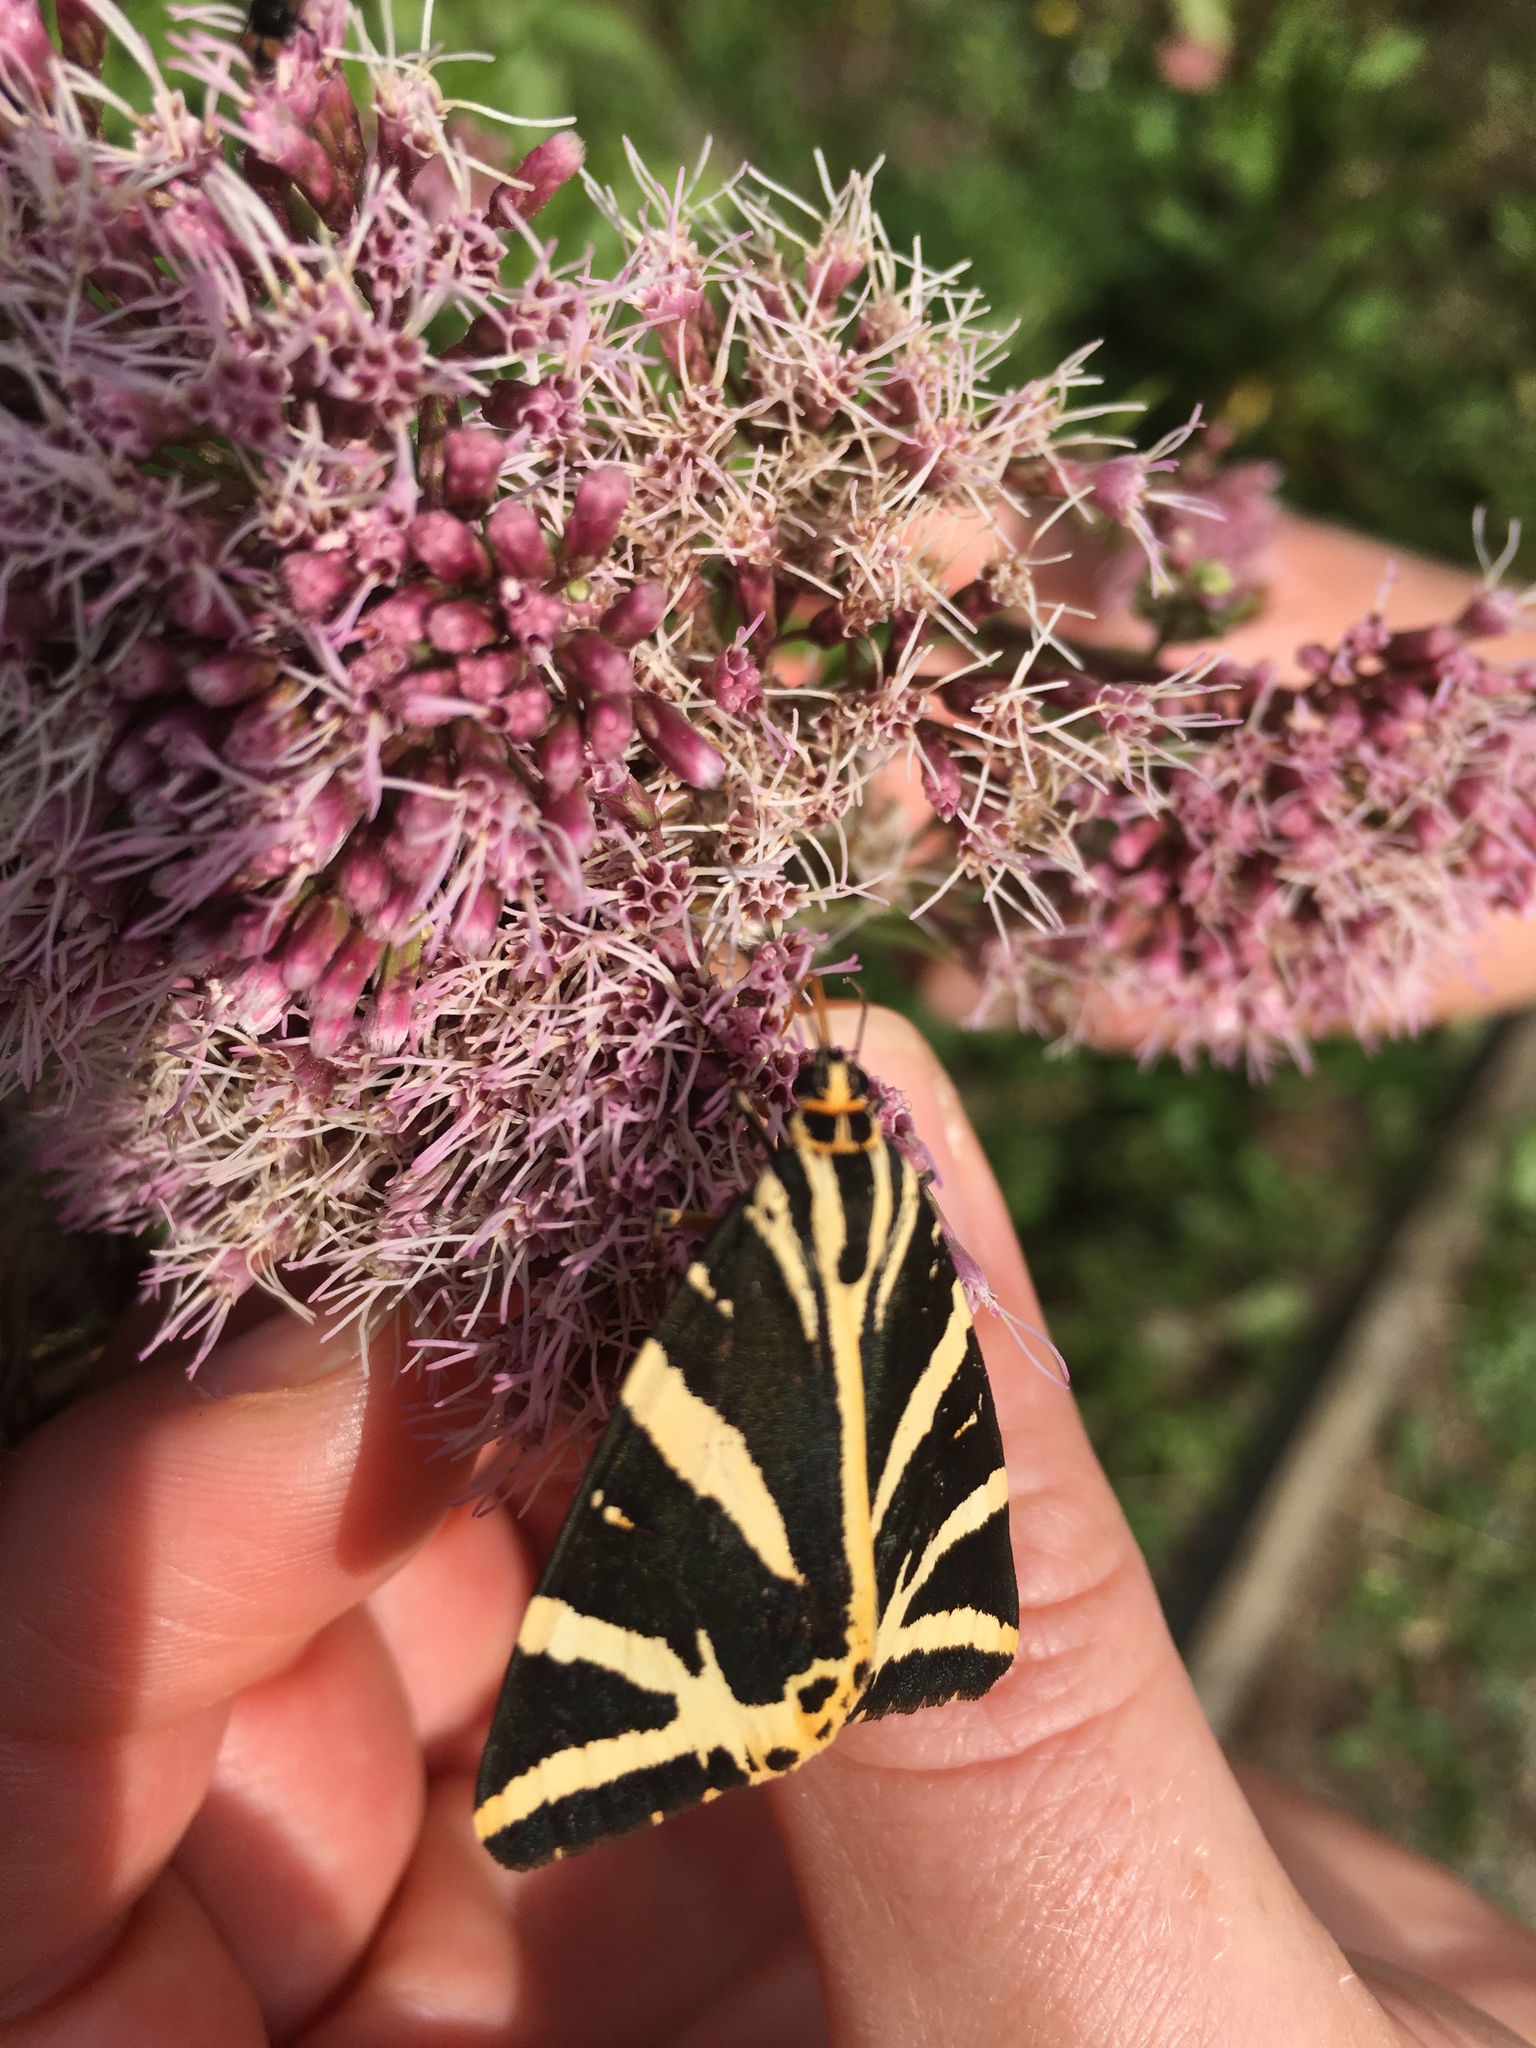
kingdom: Animalia
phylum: Arthropoda
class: Insecta
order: Lepidoptera
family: Erebidae
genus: Euplagia
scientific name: Euplagia quadripunctaria
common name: Jersey tiger
